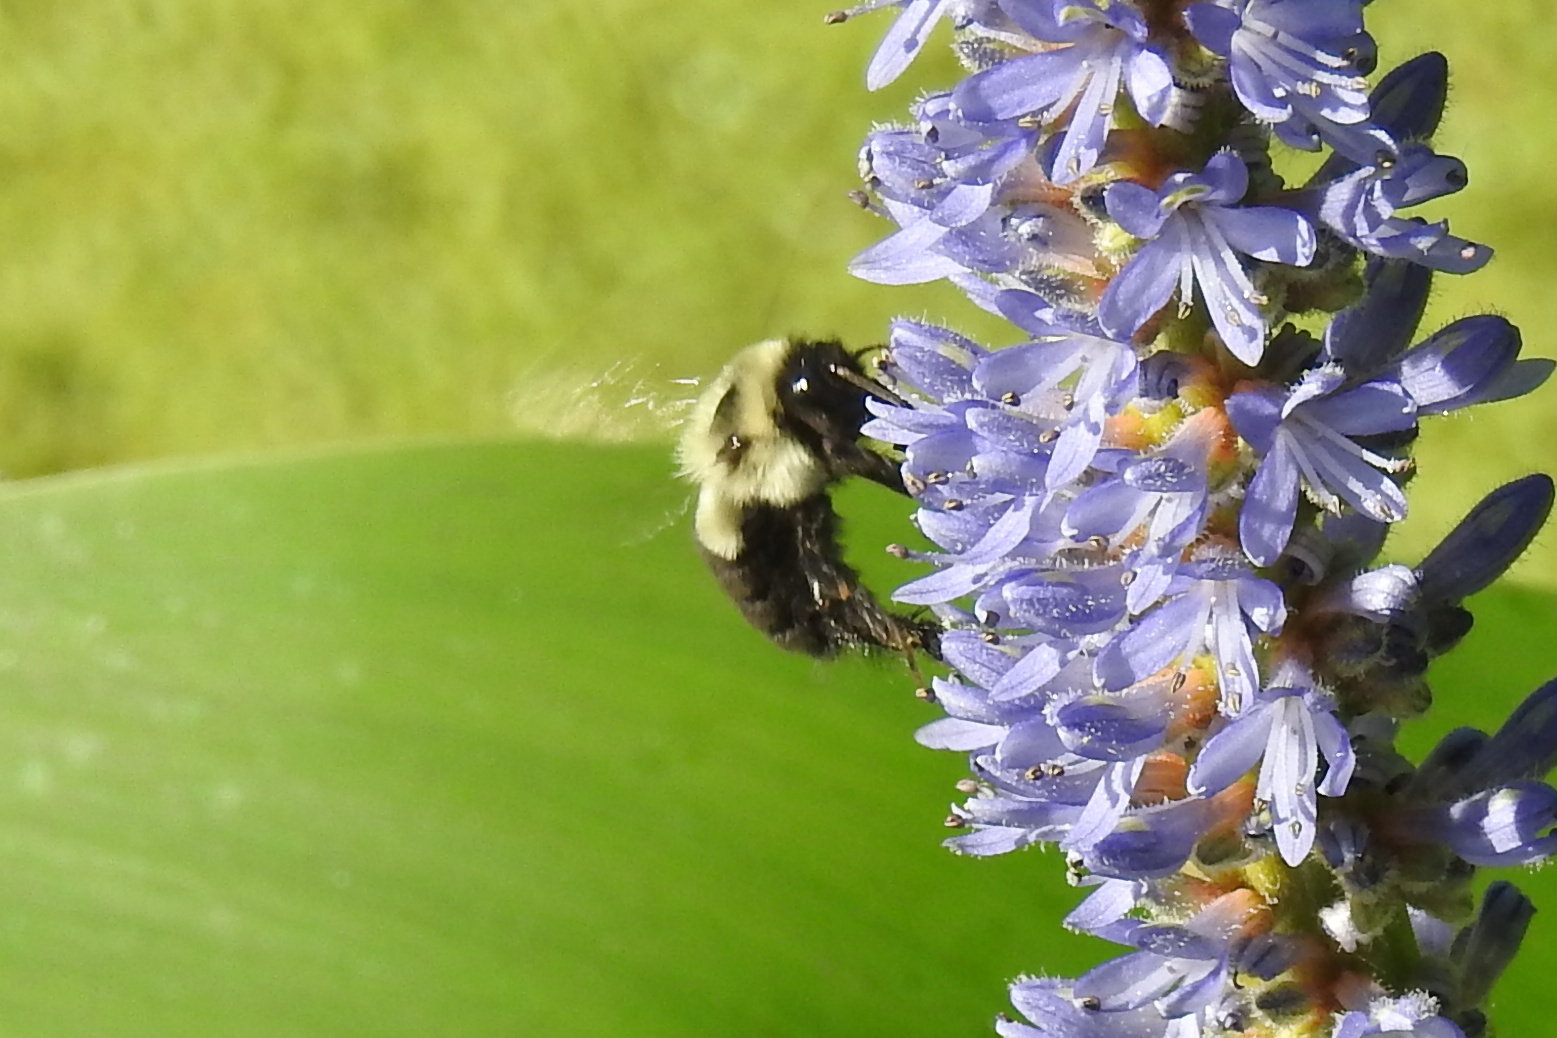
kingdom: Animalia
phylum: Arthropoda
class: Insecta
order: Hymenoptera
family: Apidae
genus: Bombus
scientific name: Bombus impatiens
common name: Common eastern bumble bee
